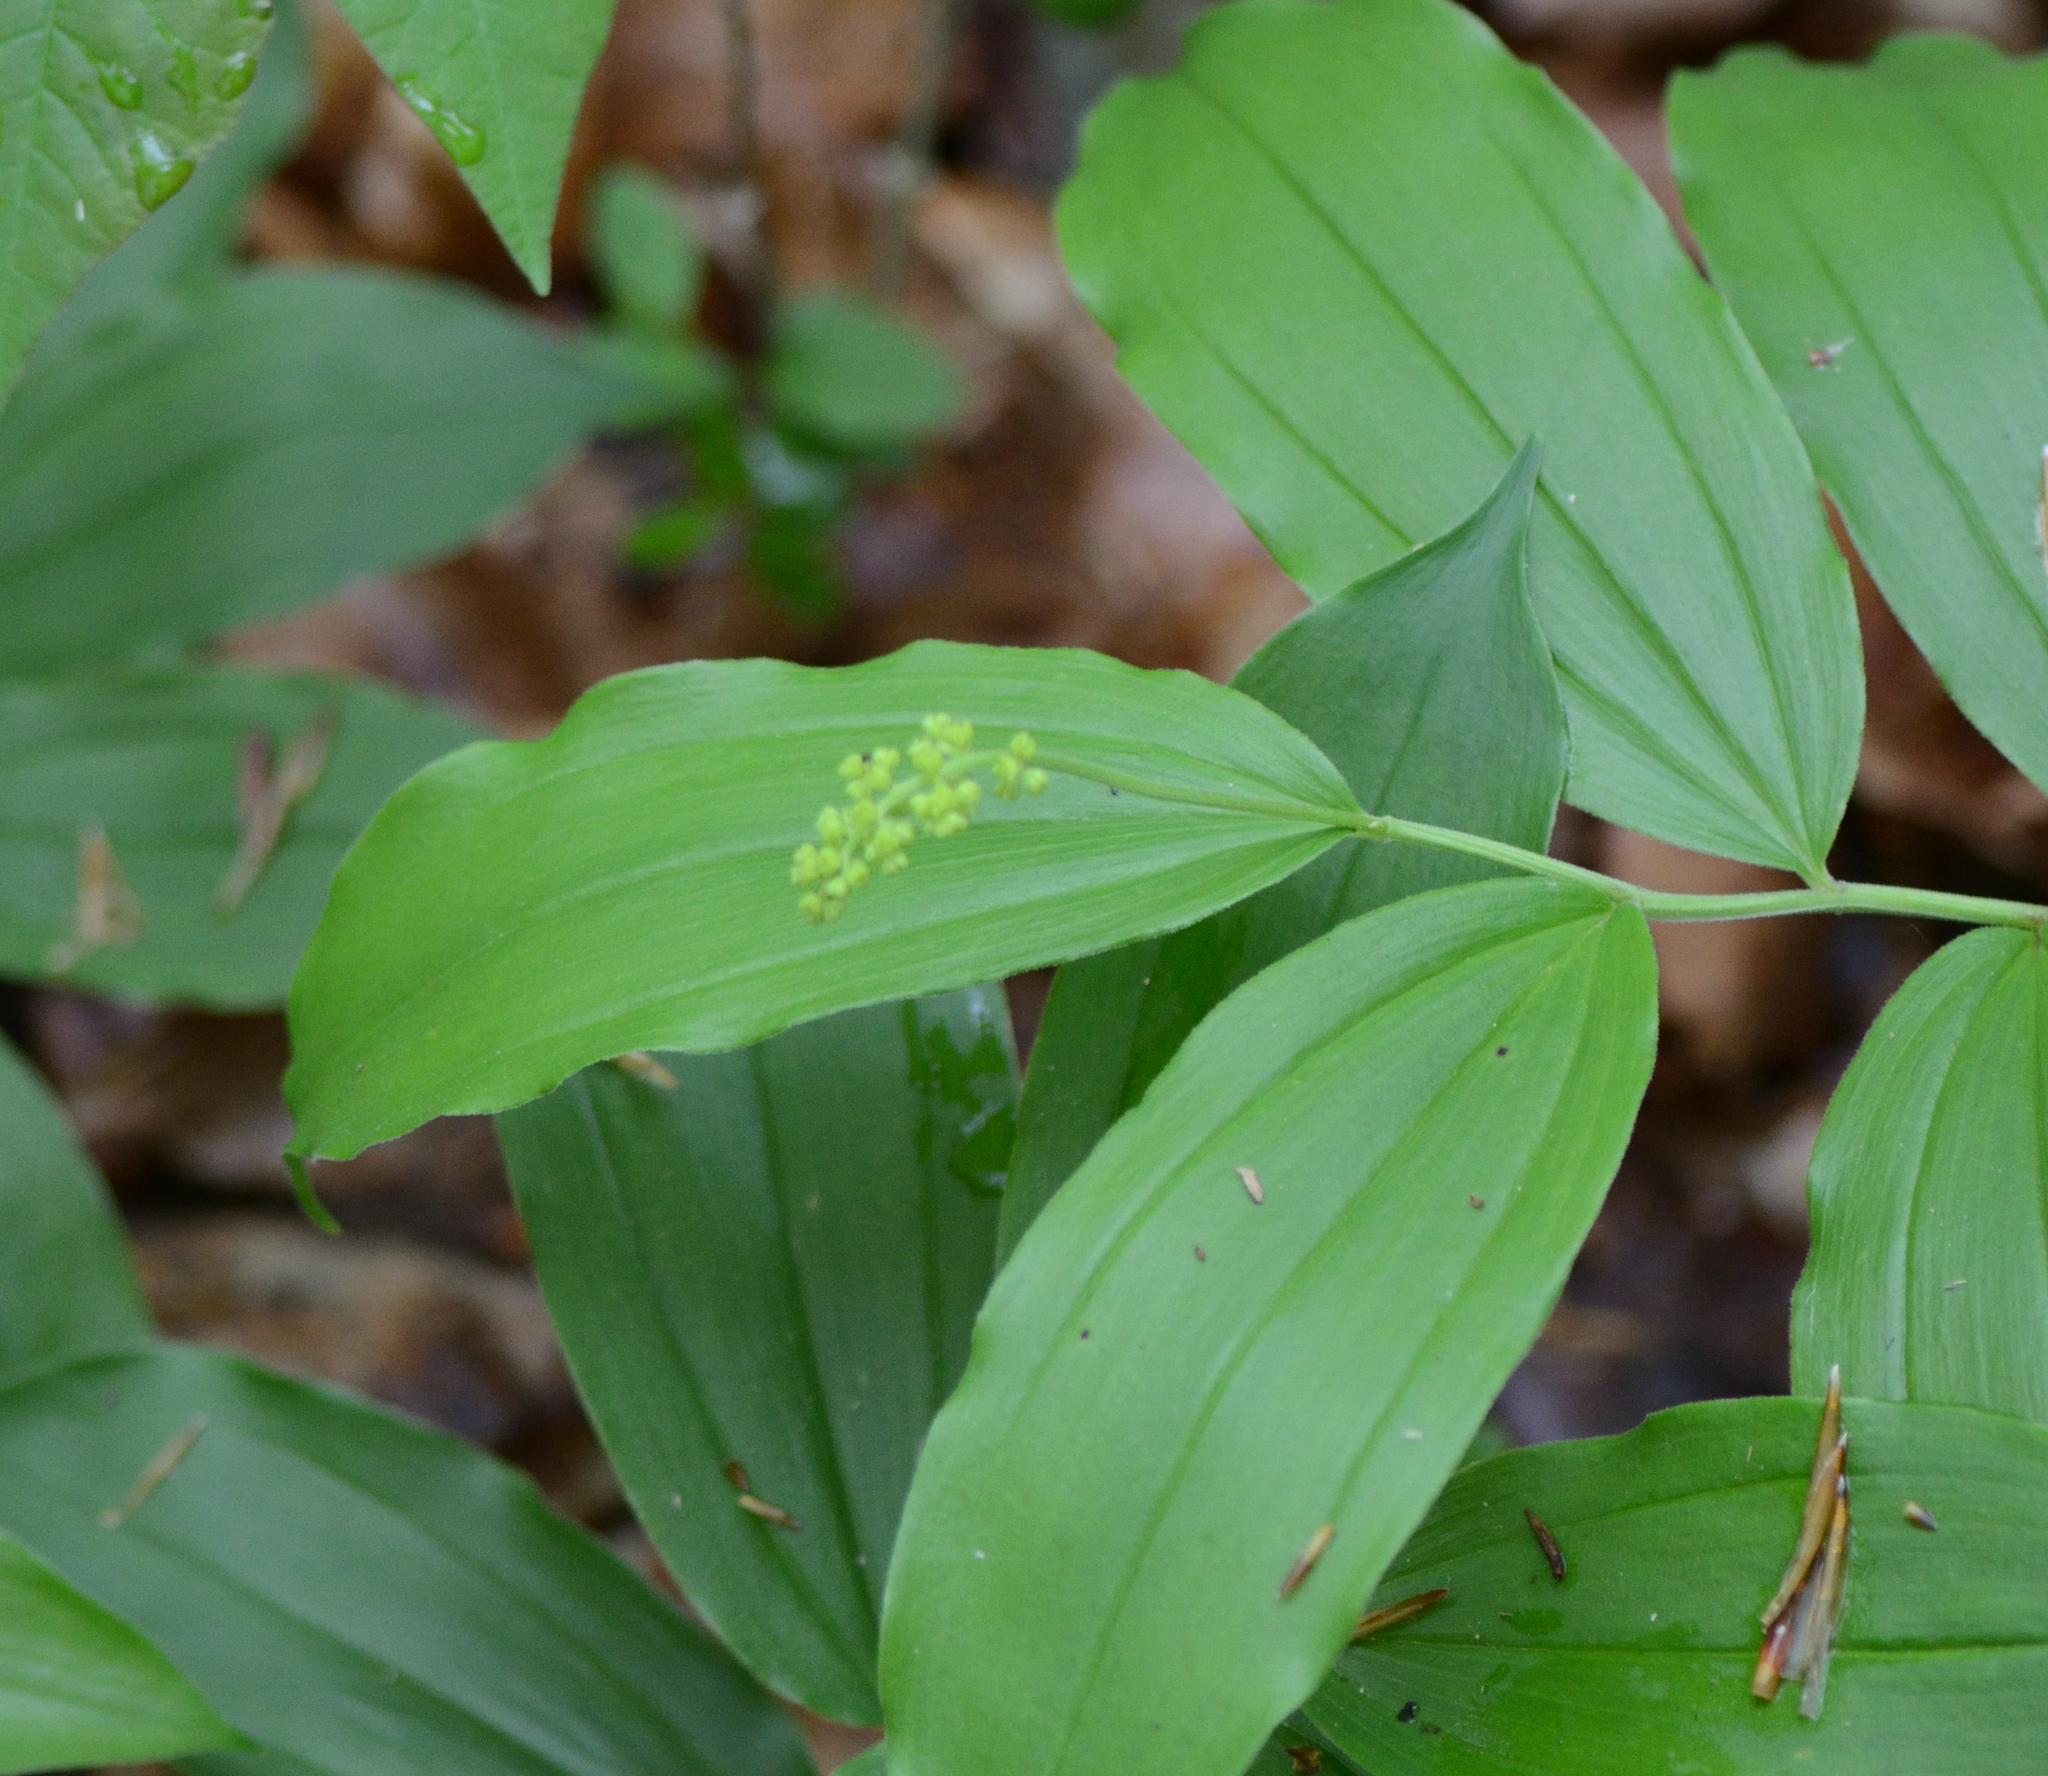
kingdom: Plantae
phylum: Tracheophyta
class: Liliopsida
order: Asparagales
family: Asparagaceae
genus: Maianthemum
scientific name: Maianthemum racemosum
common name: False spikenard
